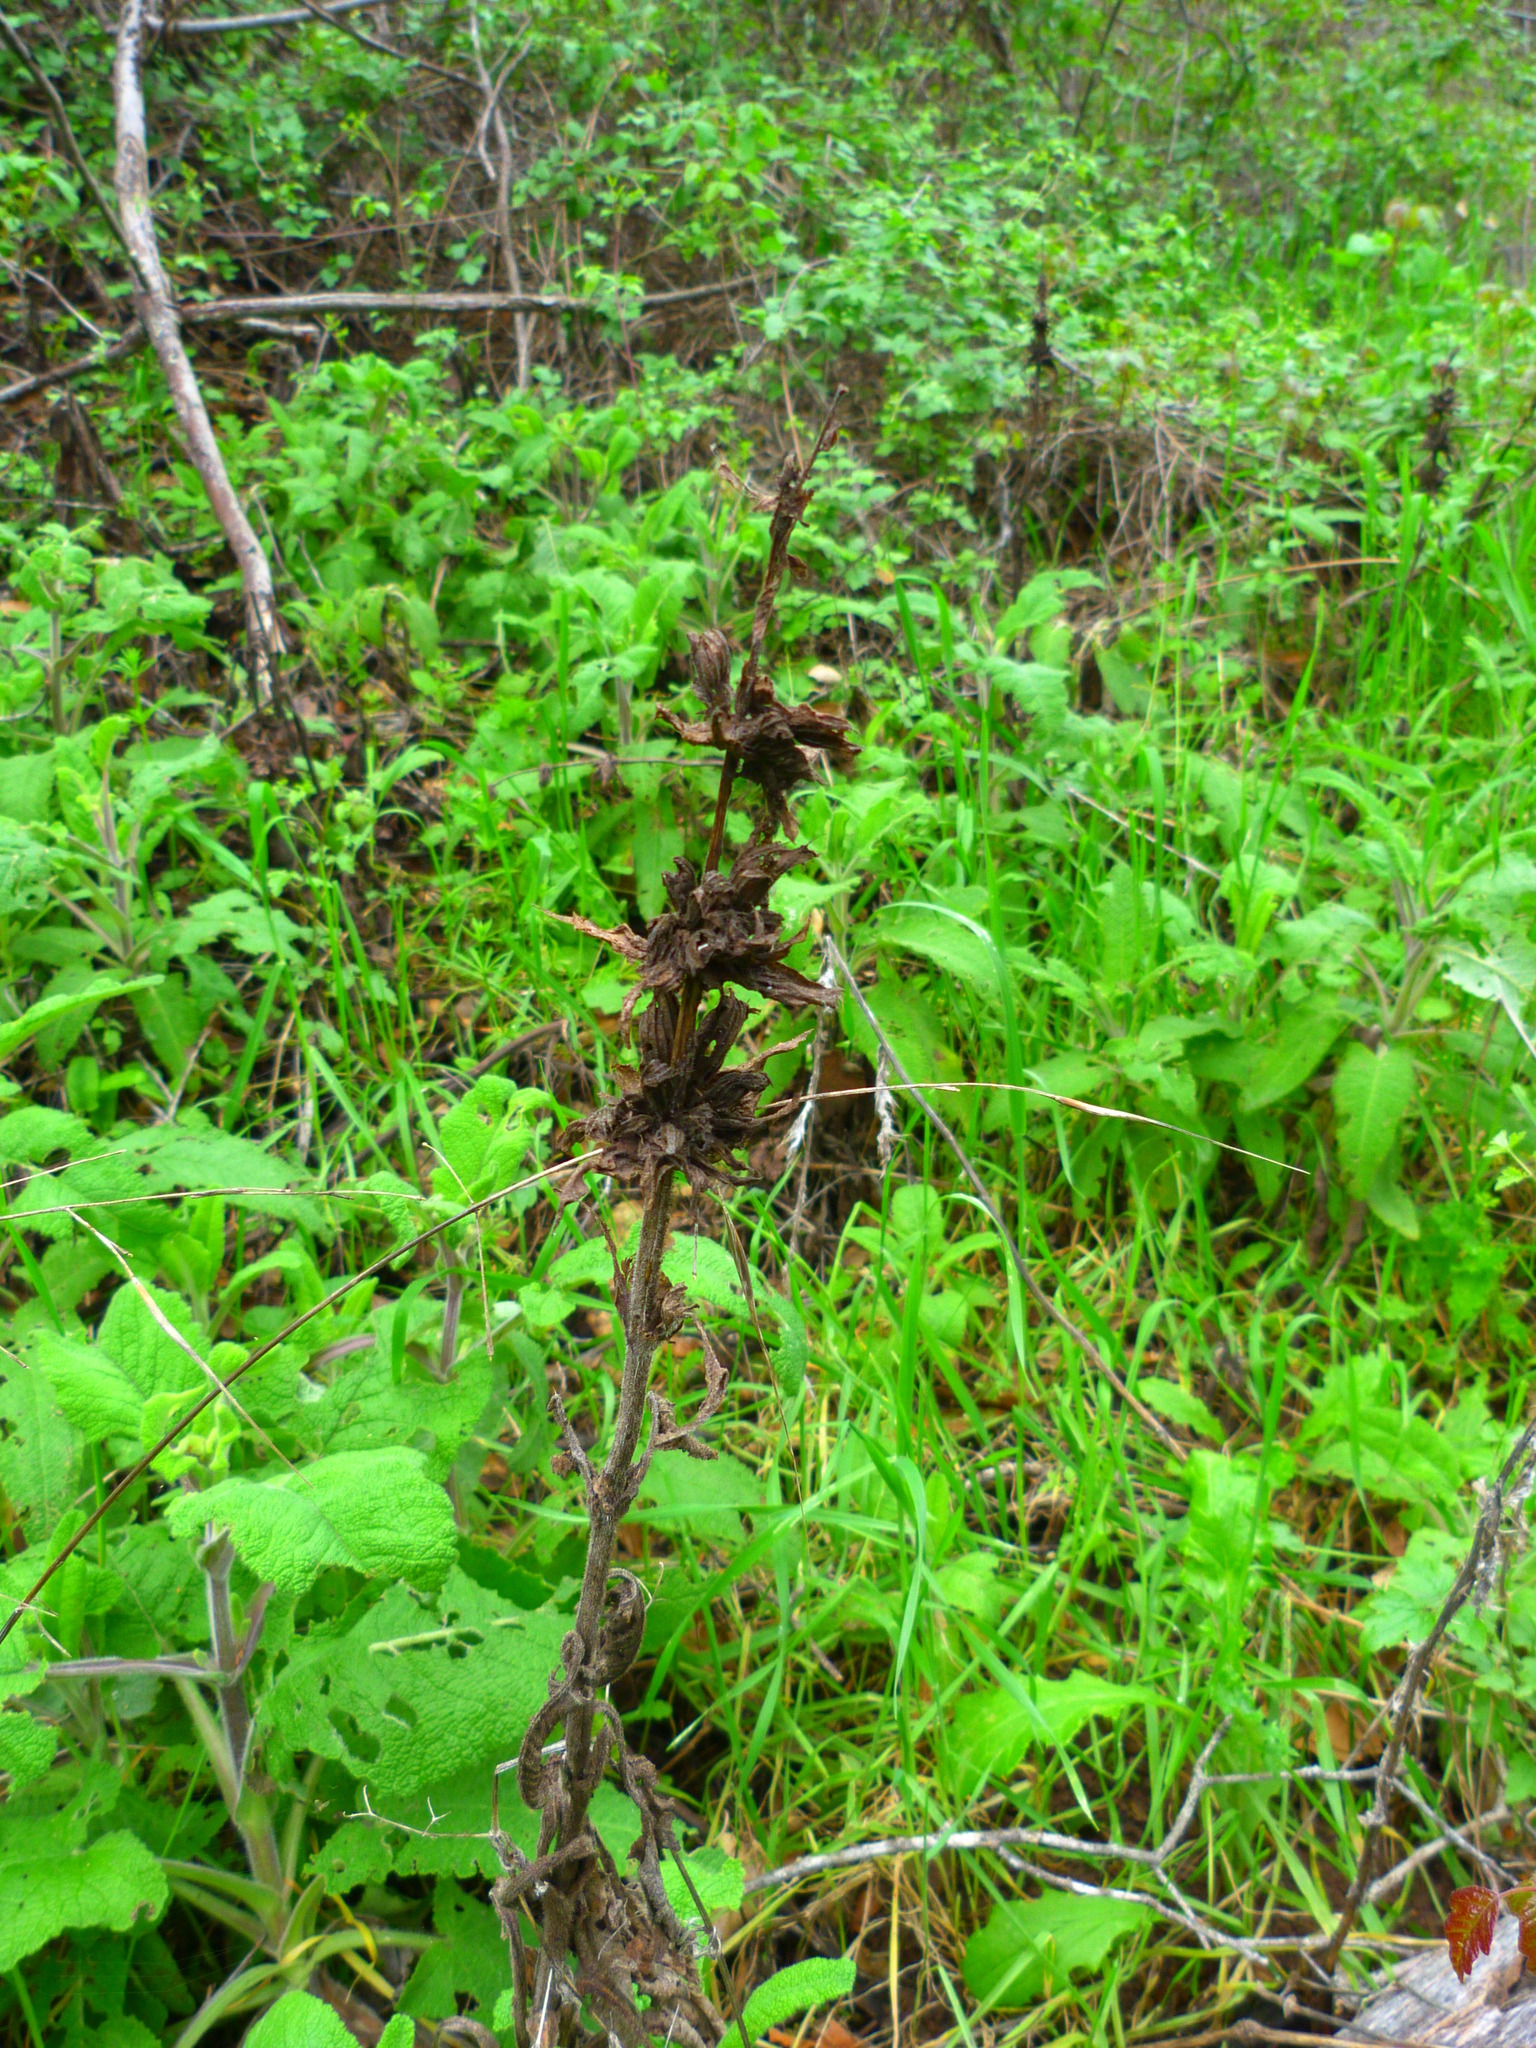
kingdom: Plantae
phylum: Tracheophyta
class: Magnoliopsida
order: Lamiales
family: Lamiaceae
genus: Salvia
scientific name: Salvia spathacea
